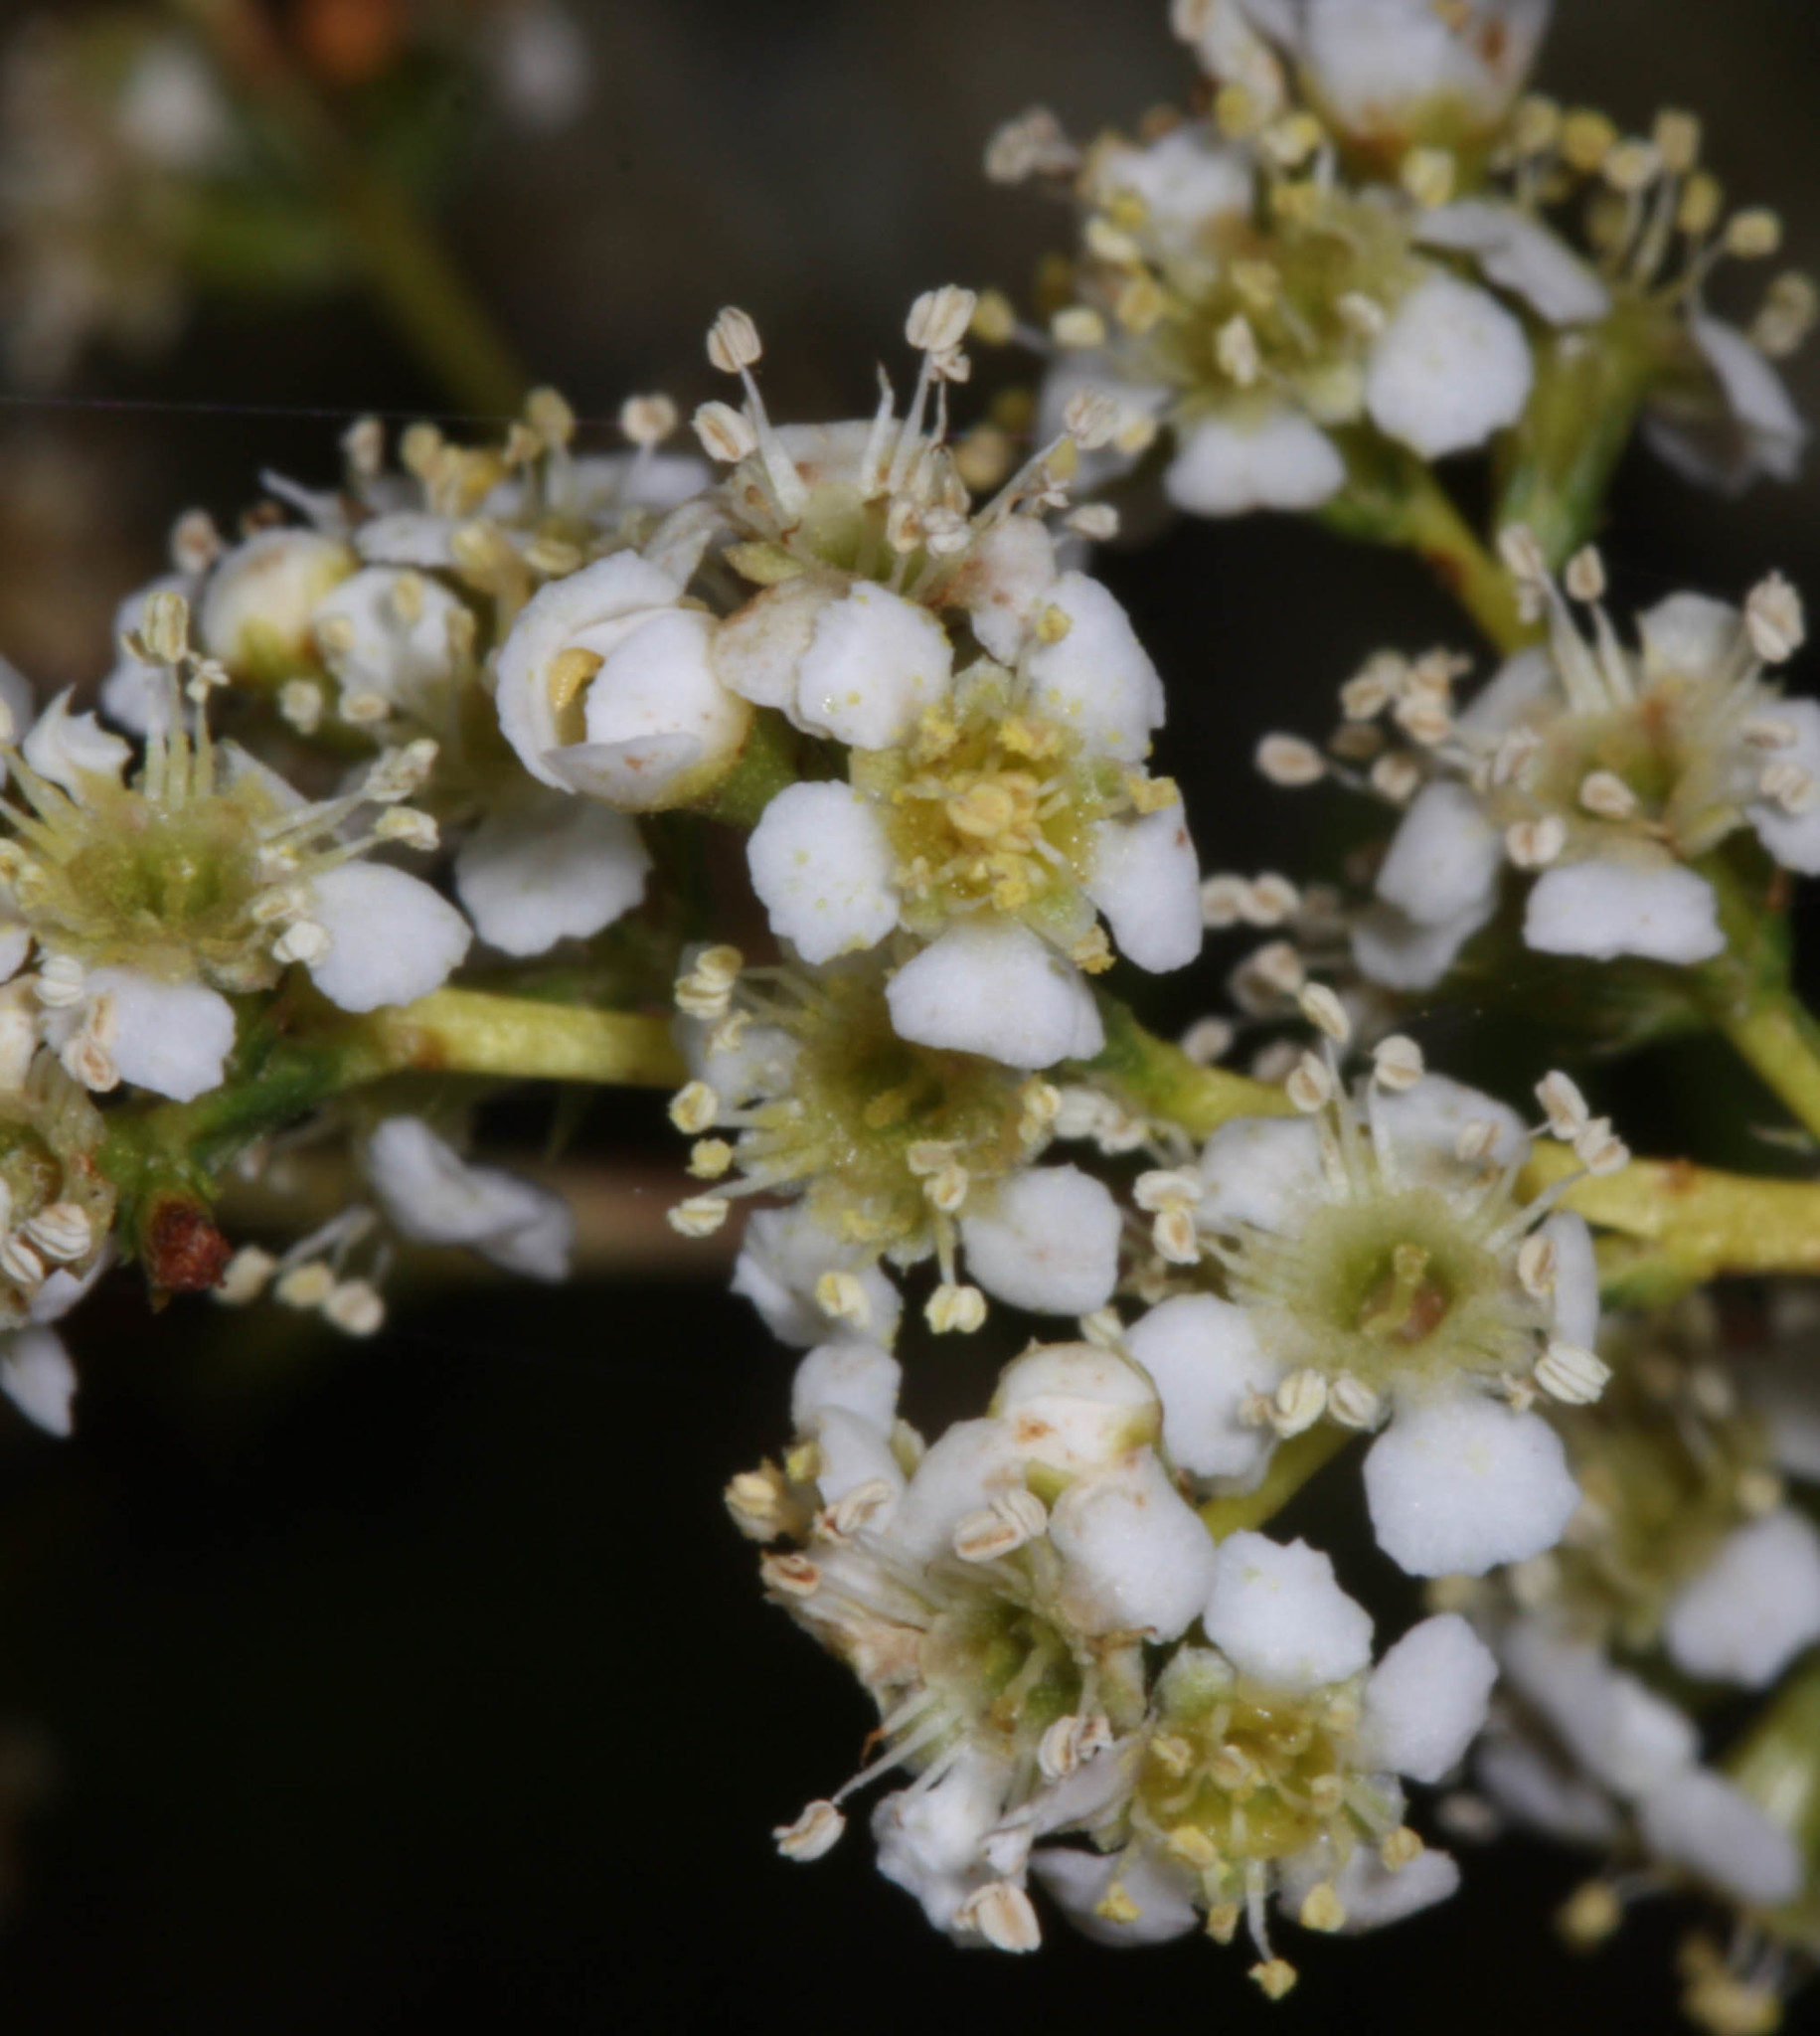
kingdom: Plantae
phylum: Tracheophyta
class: Magnoliopsida
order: Rosales
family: Rosaceae
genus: Adenostoma
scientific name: Adenostoma fasciculatum
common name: Chamise
